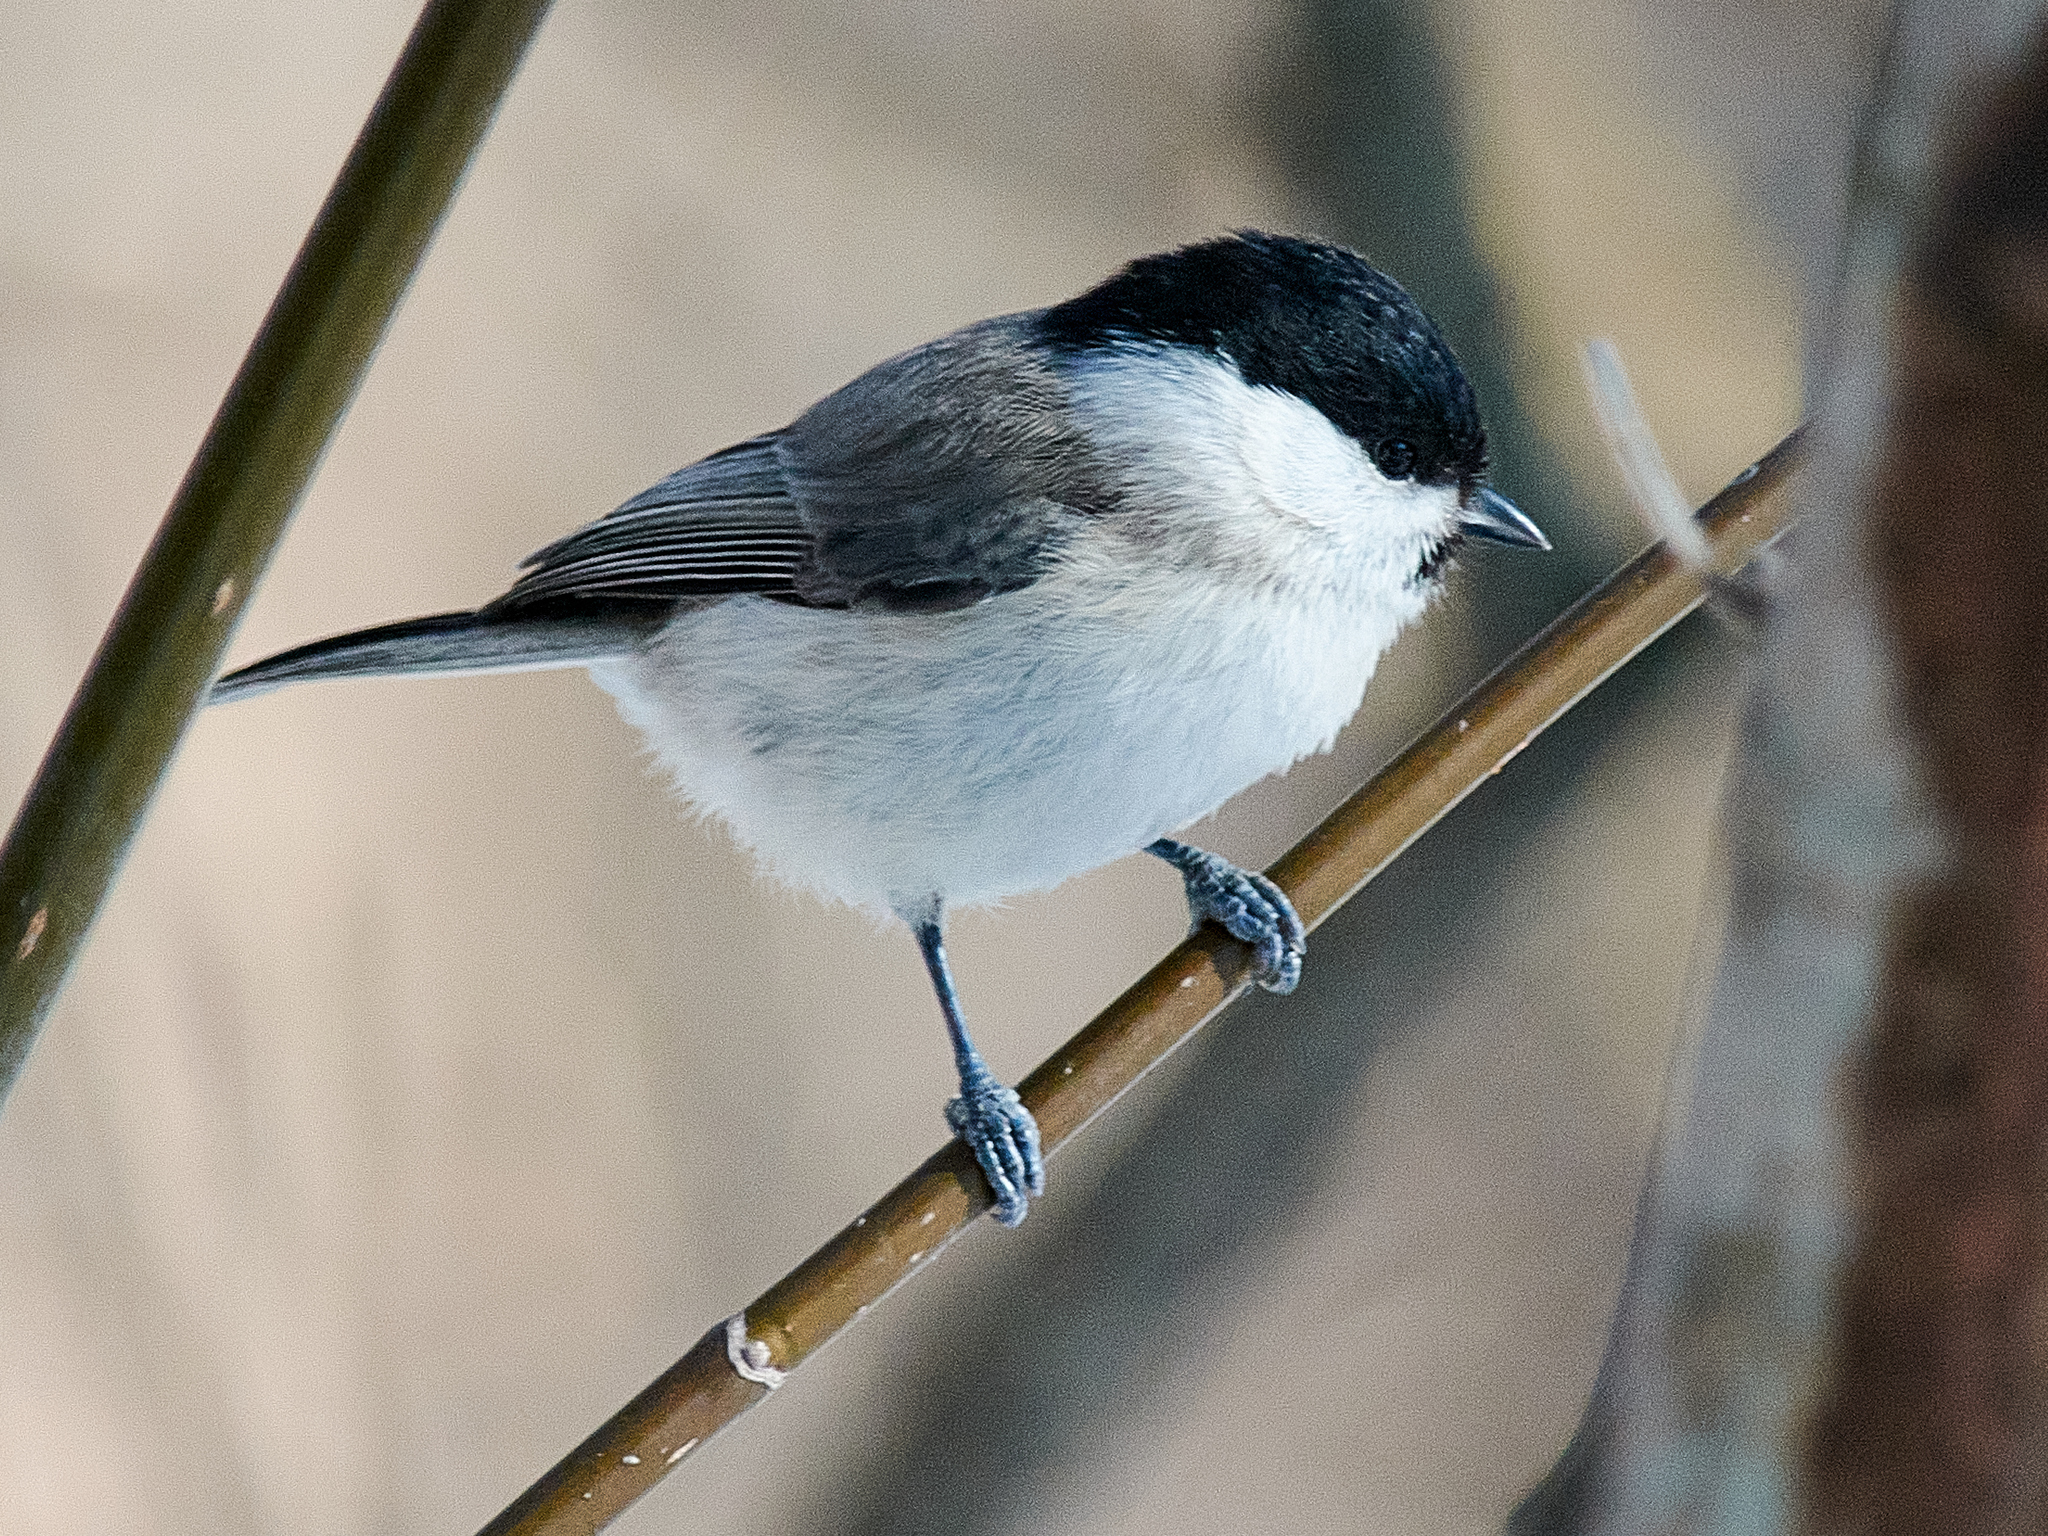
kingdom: Animalia
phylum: Chordata
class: Aves
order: Passeriformes
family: Paridae
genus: Poecile
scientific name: Poecile palustris
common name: Marsh tit
